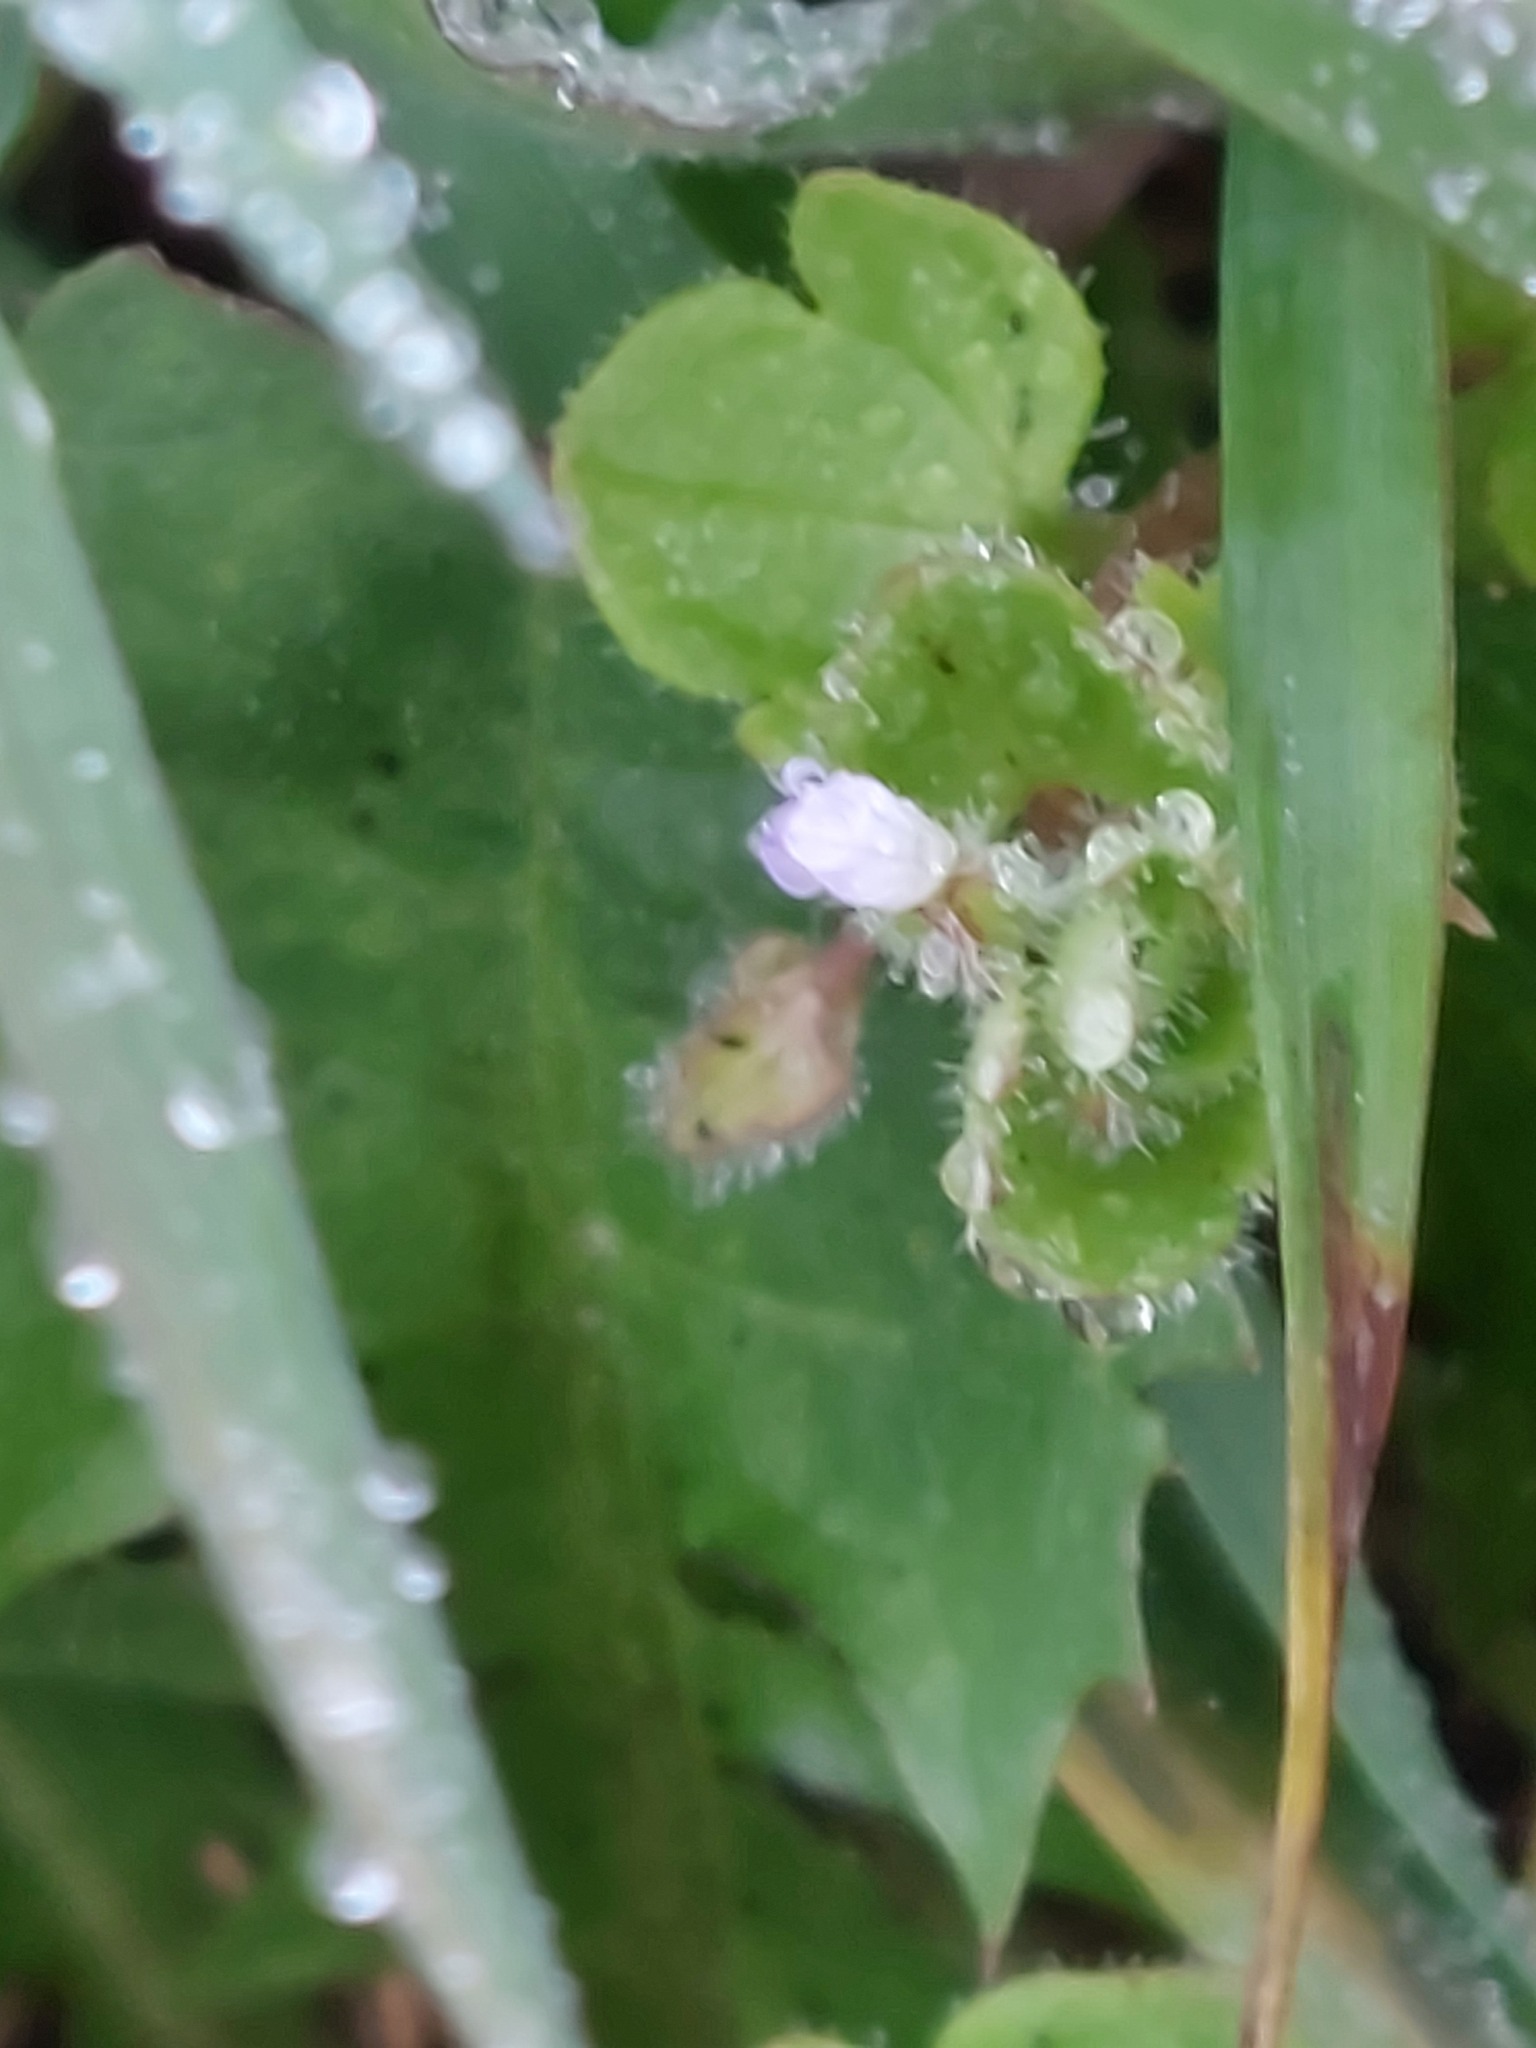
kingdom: Plantae
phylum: Tracheophyta
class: Magnoliopsida
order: Lamiales
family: Plantaginaceae
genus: Veronica
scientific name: Veronica hederifolia
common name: Ivy-leaved speedwell
